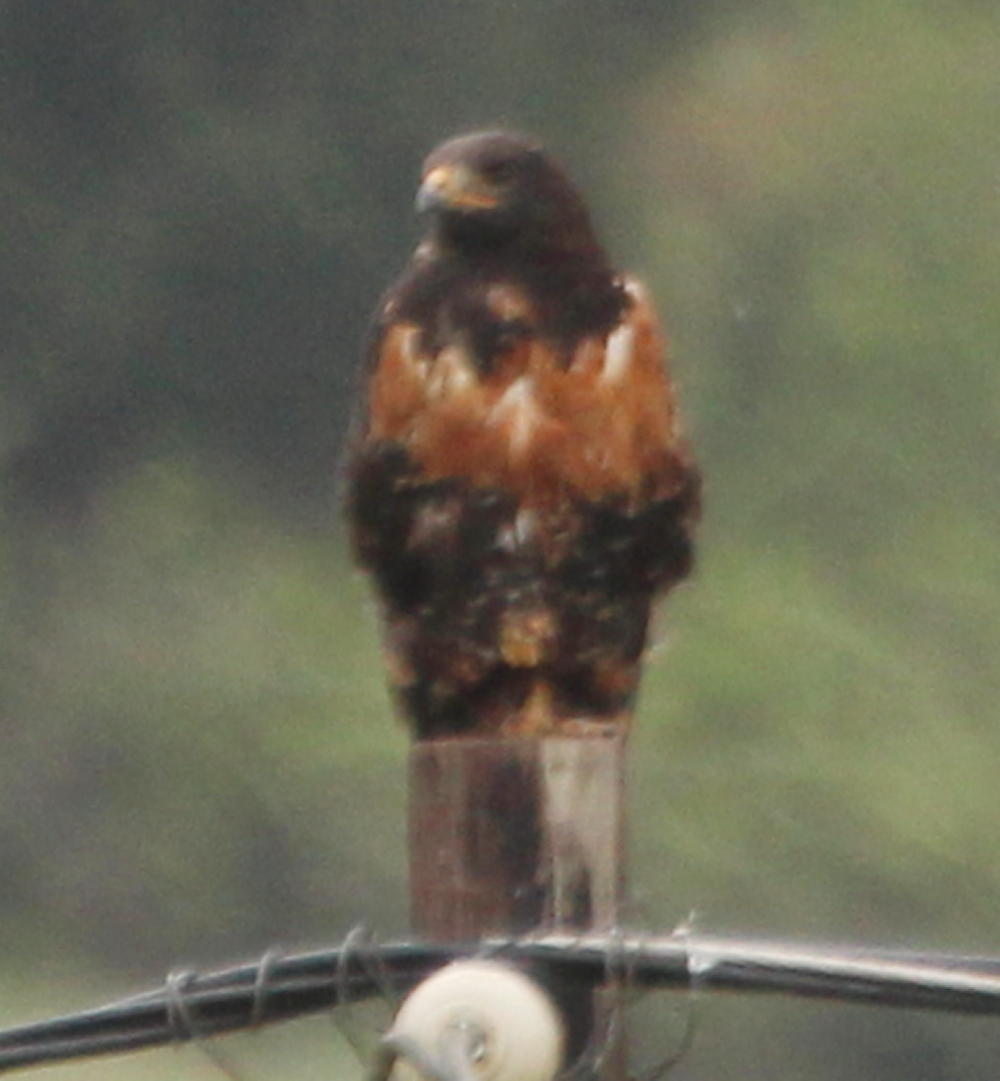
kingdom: Animalia
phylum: Chordata
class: Aves
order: Accipitriformes
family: Accipitridae
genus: Buteo
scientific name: Buteo rufofuscus
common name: Jackal buzzard
